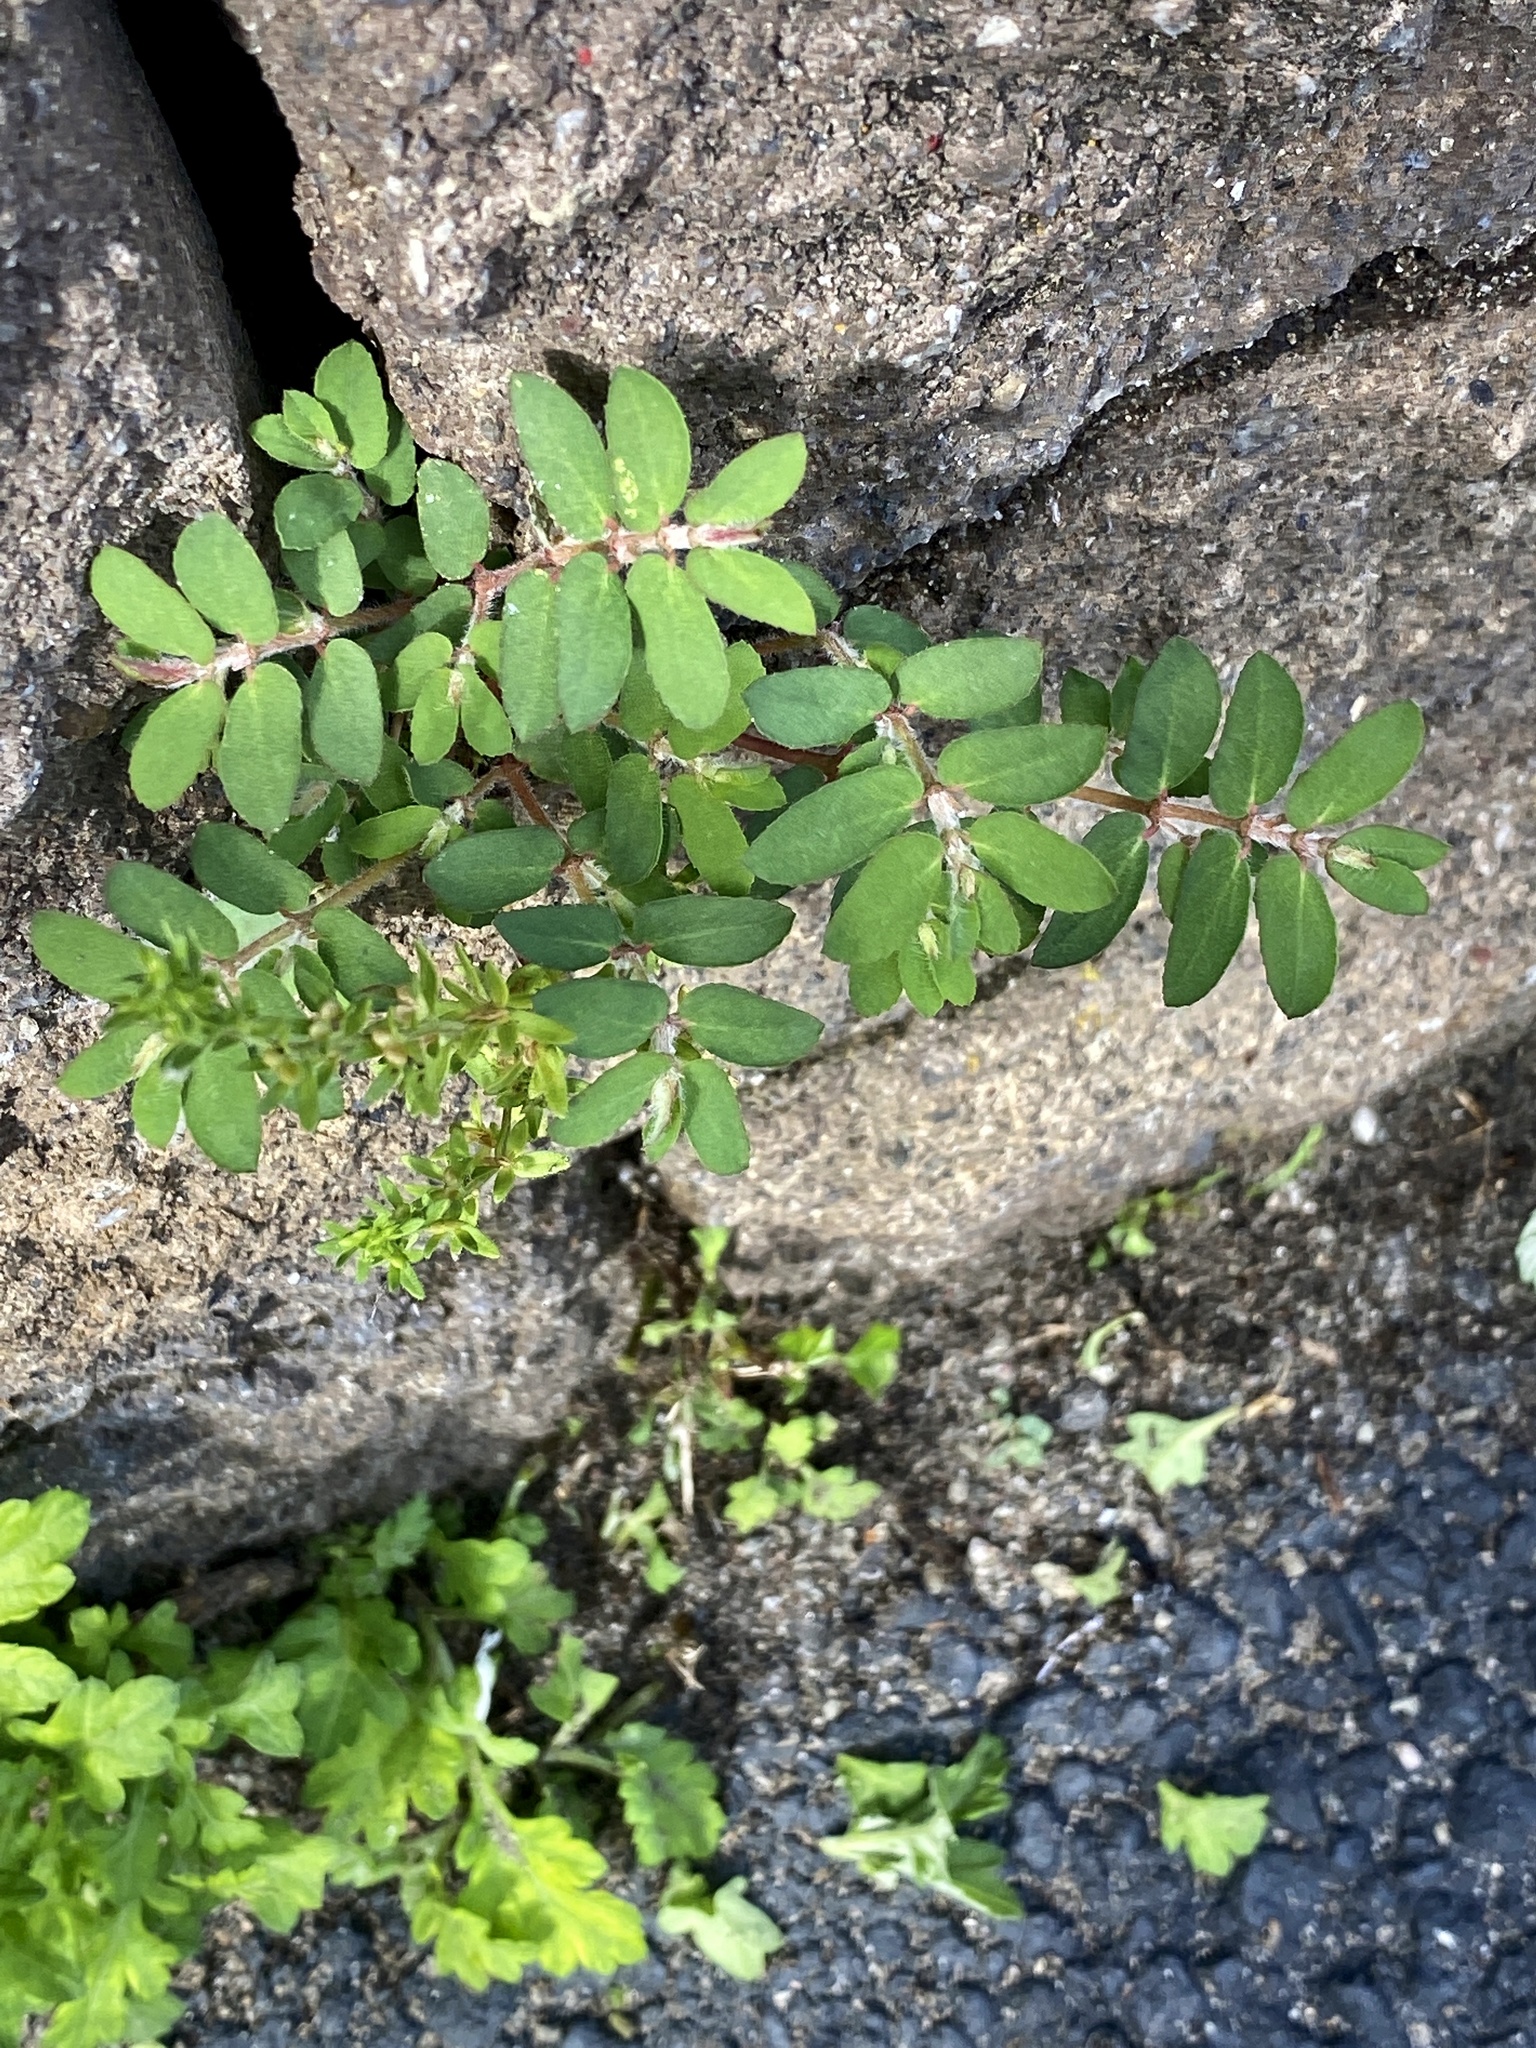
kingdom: Plantae
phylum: Tracheophyta
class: Magnoliopsida
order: Malpighiales
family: Euphorbiaceae
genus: Euphorbia
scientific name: Euphorbia maculata
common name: Spotted spurge
